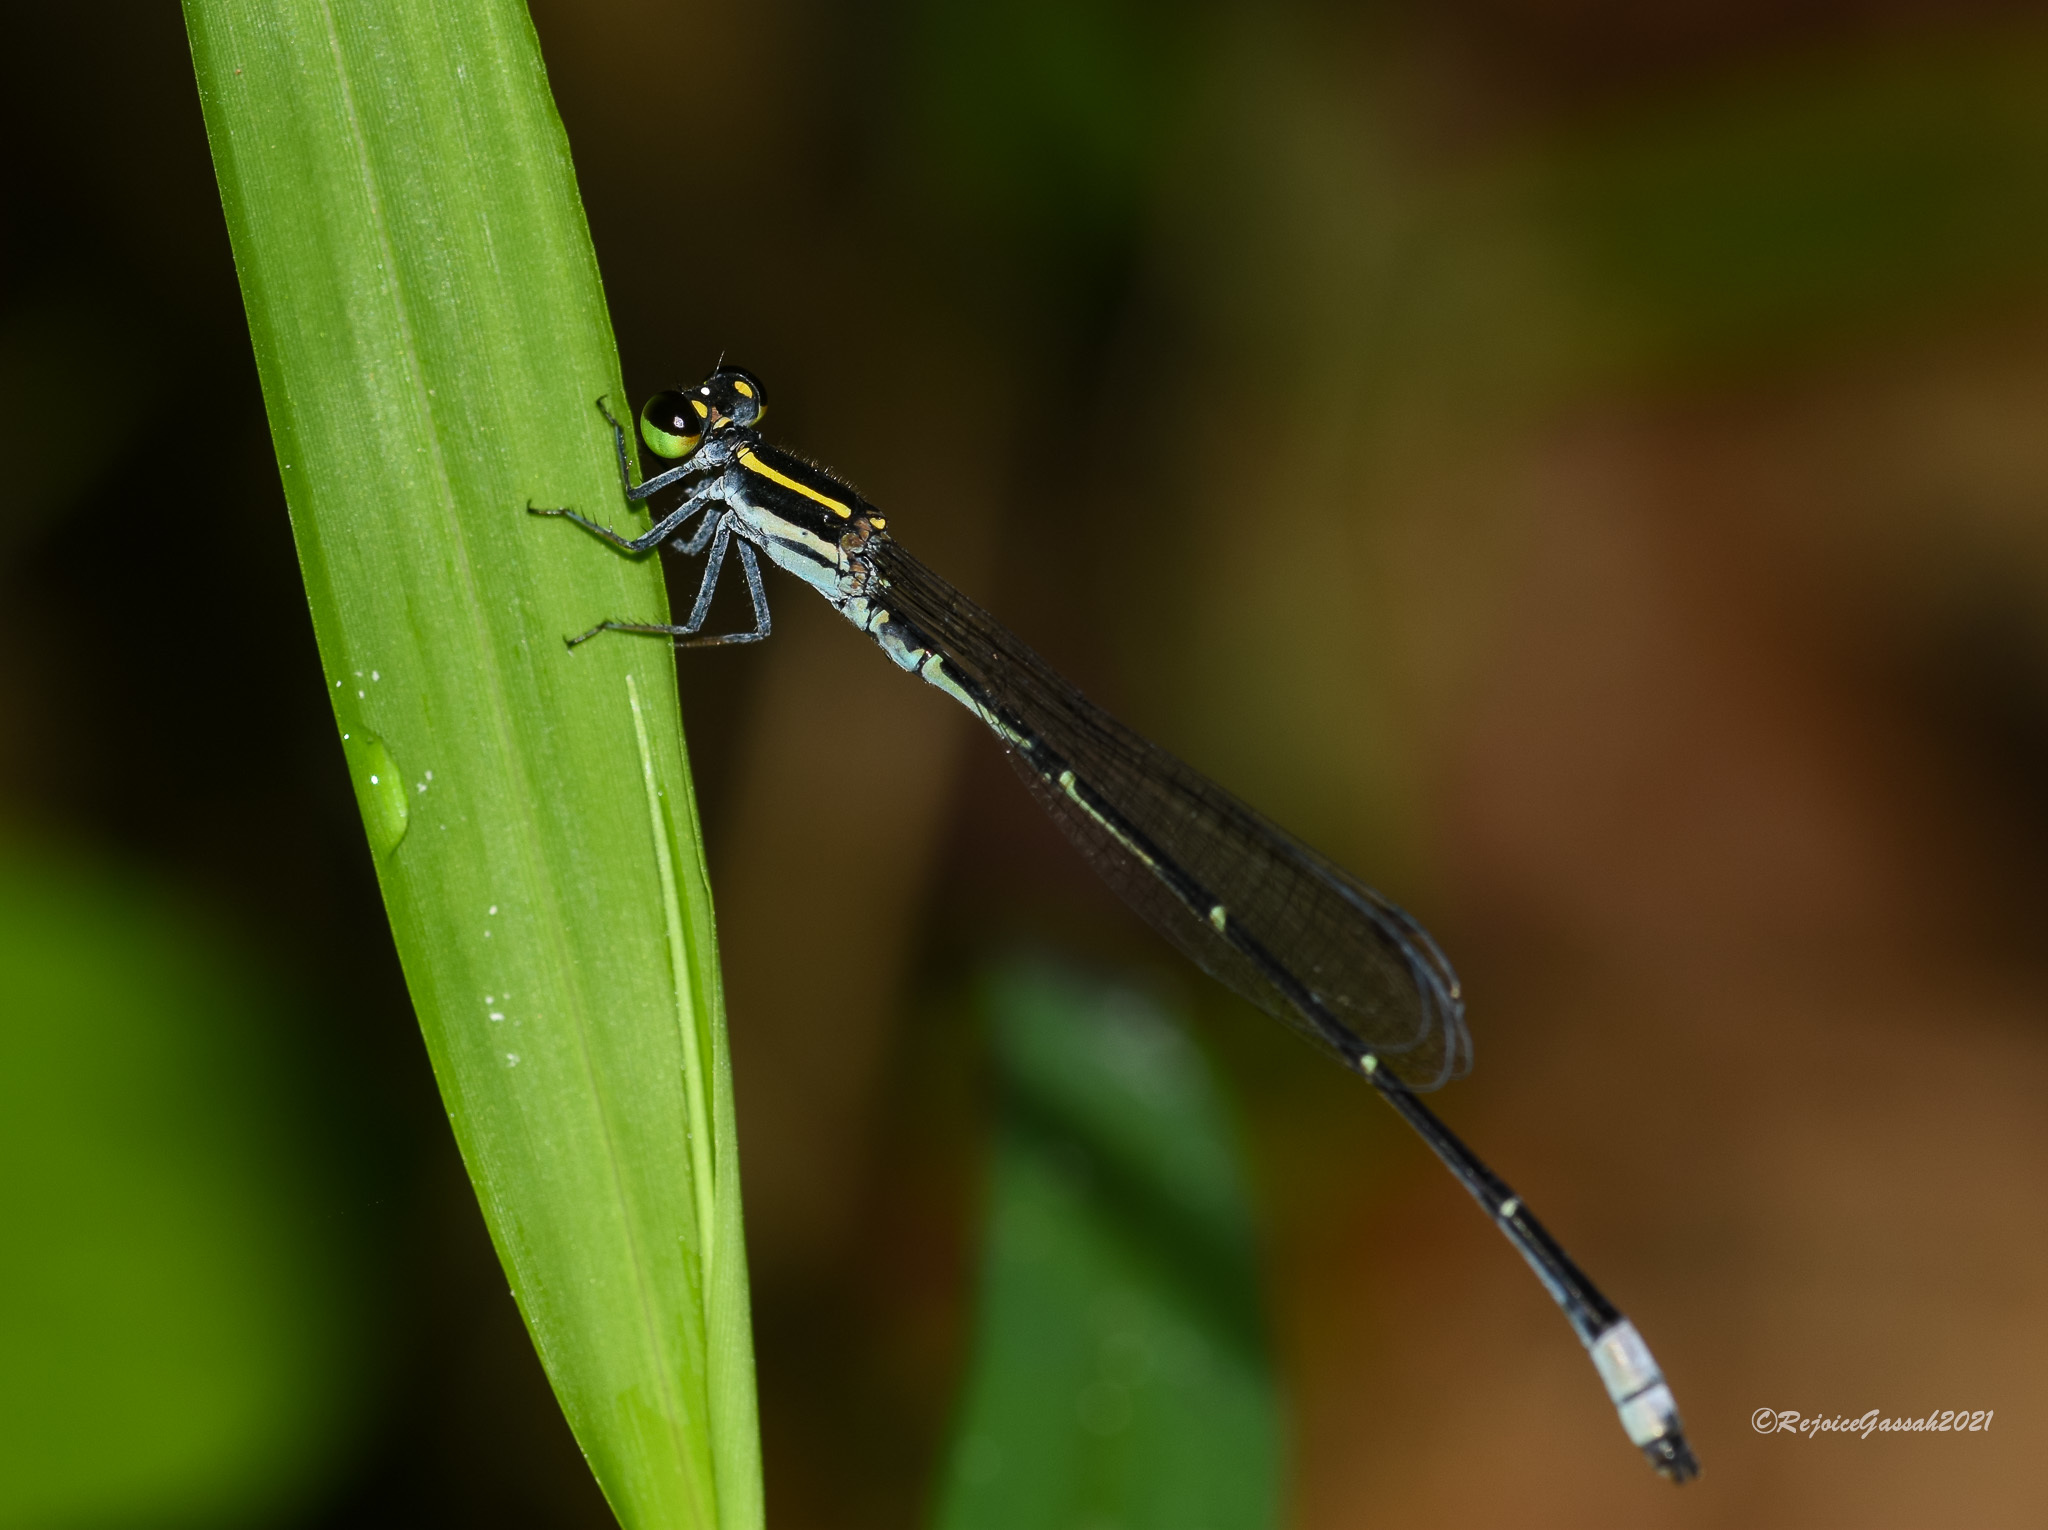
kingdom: Animalia
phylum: Arthropoda
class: Insecta
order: Odonata
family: Coenagrionidae
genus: Argiocnemis
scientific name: Argiocnemis rubescens
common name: Red-tipped shadefly
